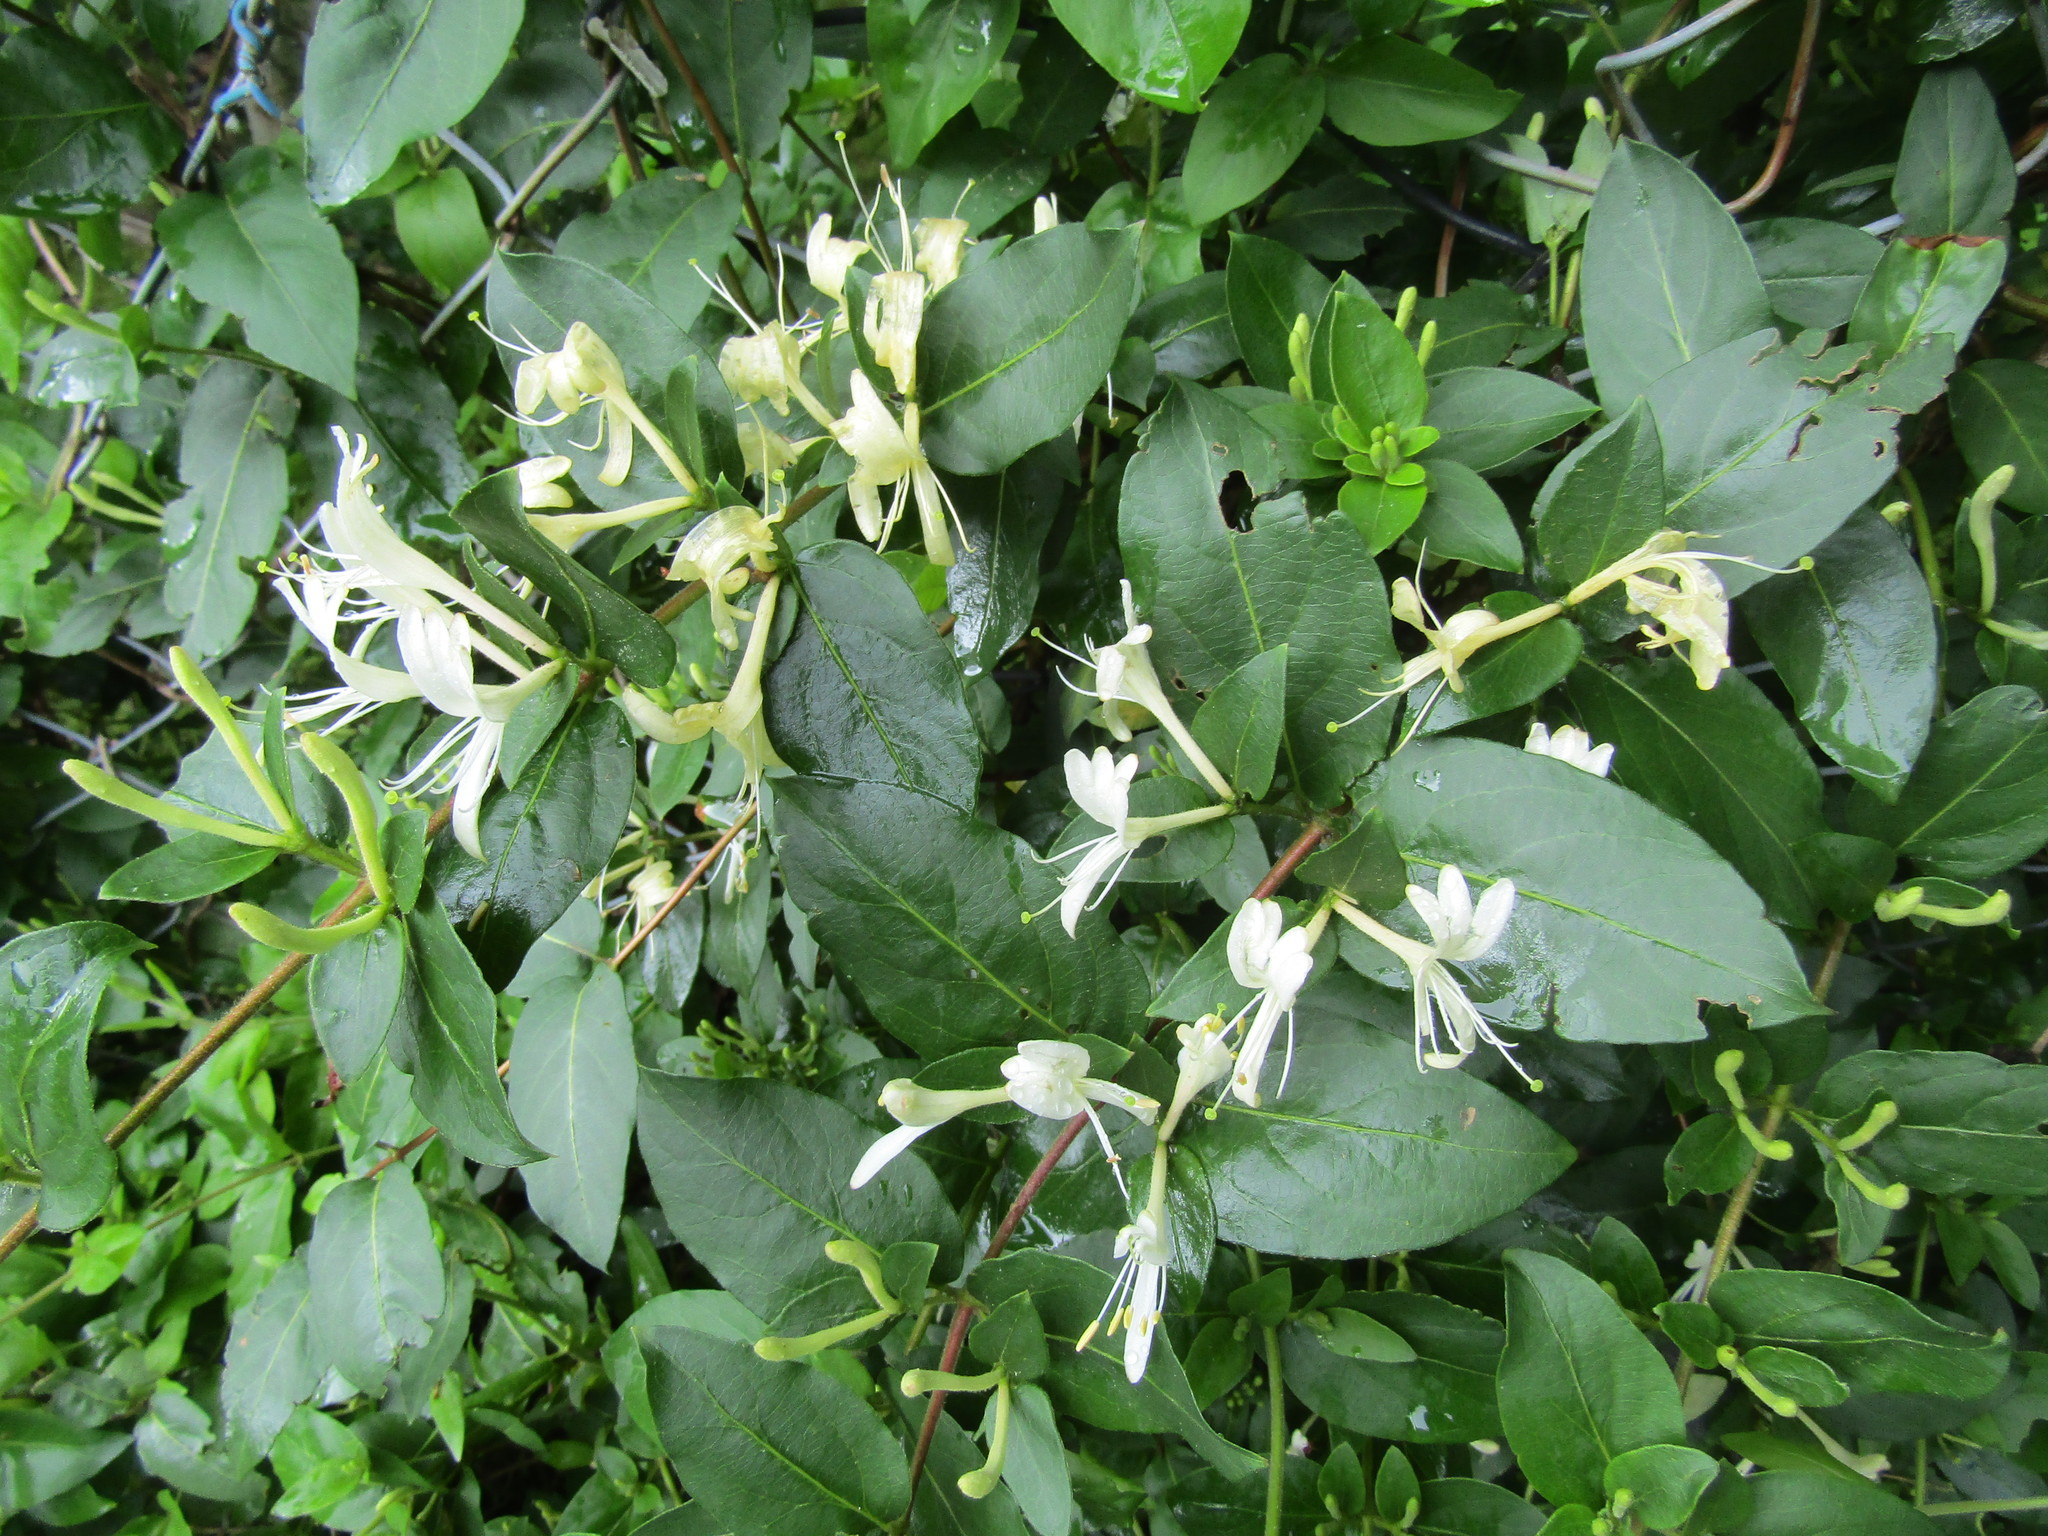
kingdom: Plantae
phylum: Tracheophyta
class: Magnoliopsida
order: Dipsacales
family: Caprifoliaceae
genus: Lonicera
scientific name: Lonicera japonica
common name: Japanese honeysuckle
